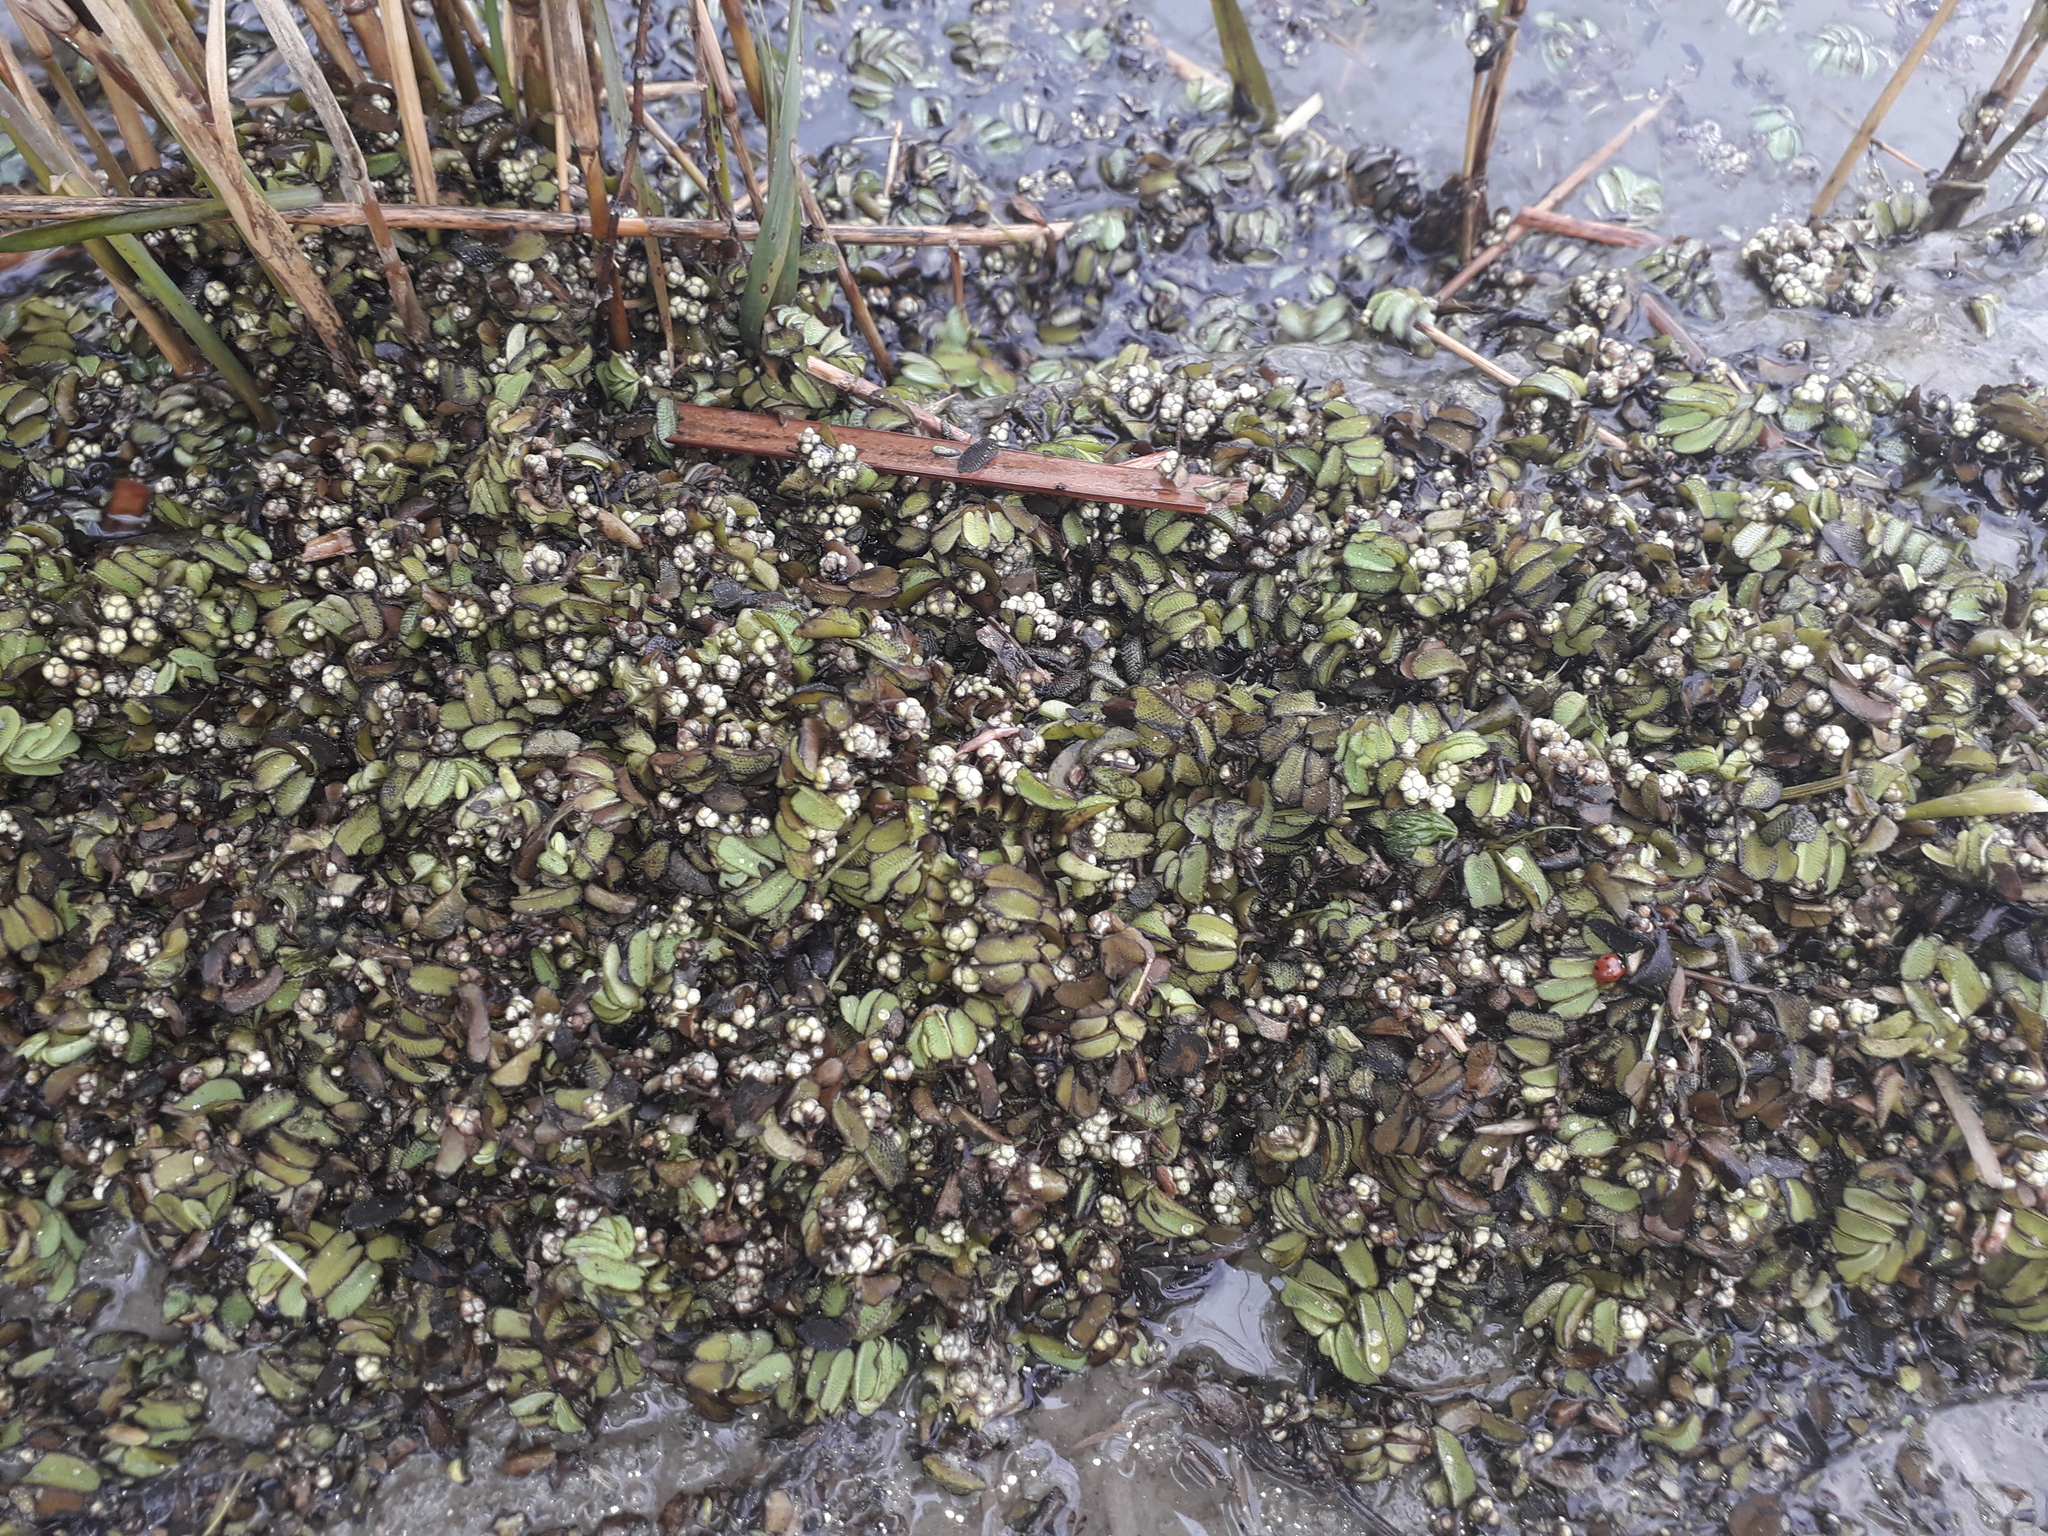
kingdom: Plantae
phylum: Tracheophyta
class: Polypodiopsida
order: Salviniales
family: Salviniaceae
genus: Salvinia
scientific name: Salvinia natans
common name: Floating fern
